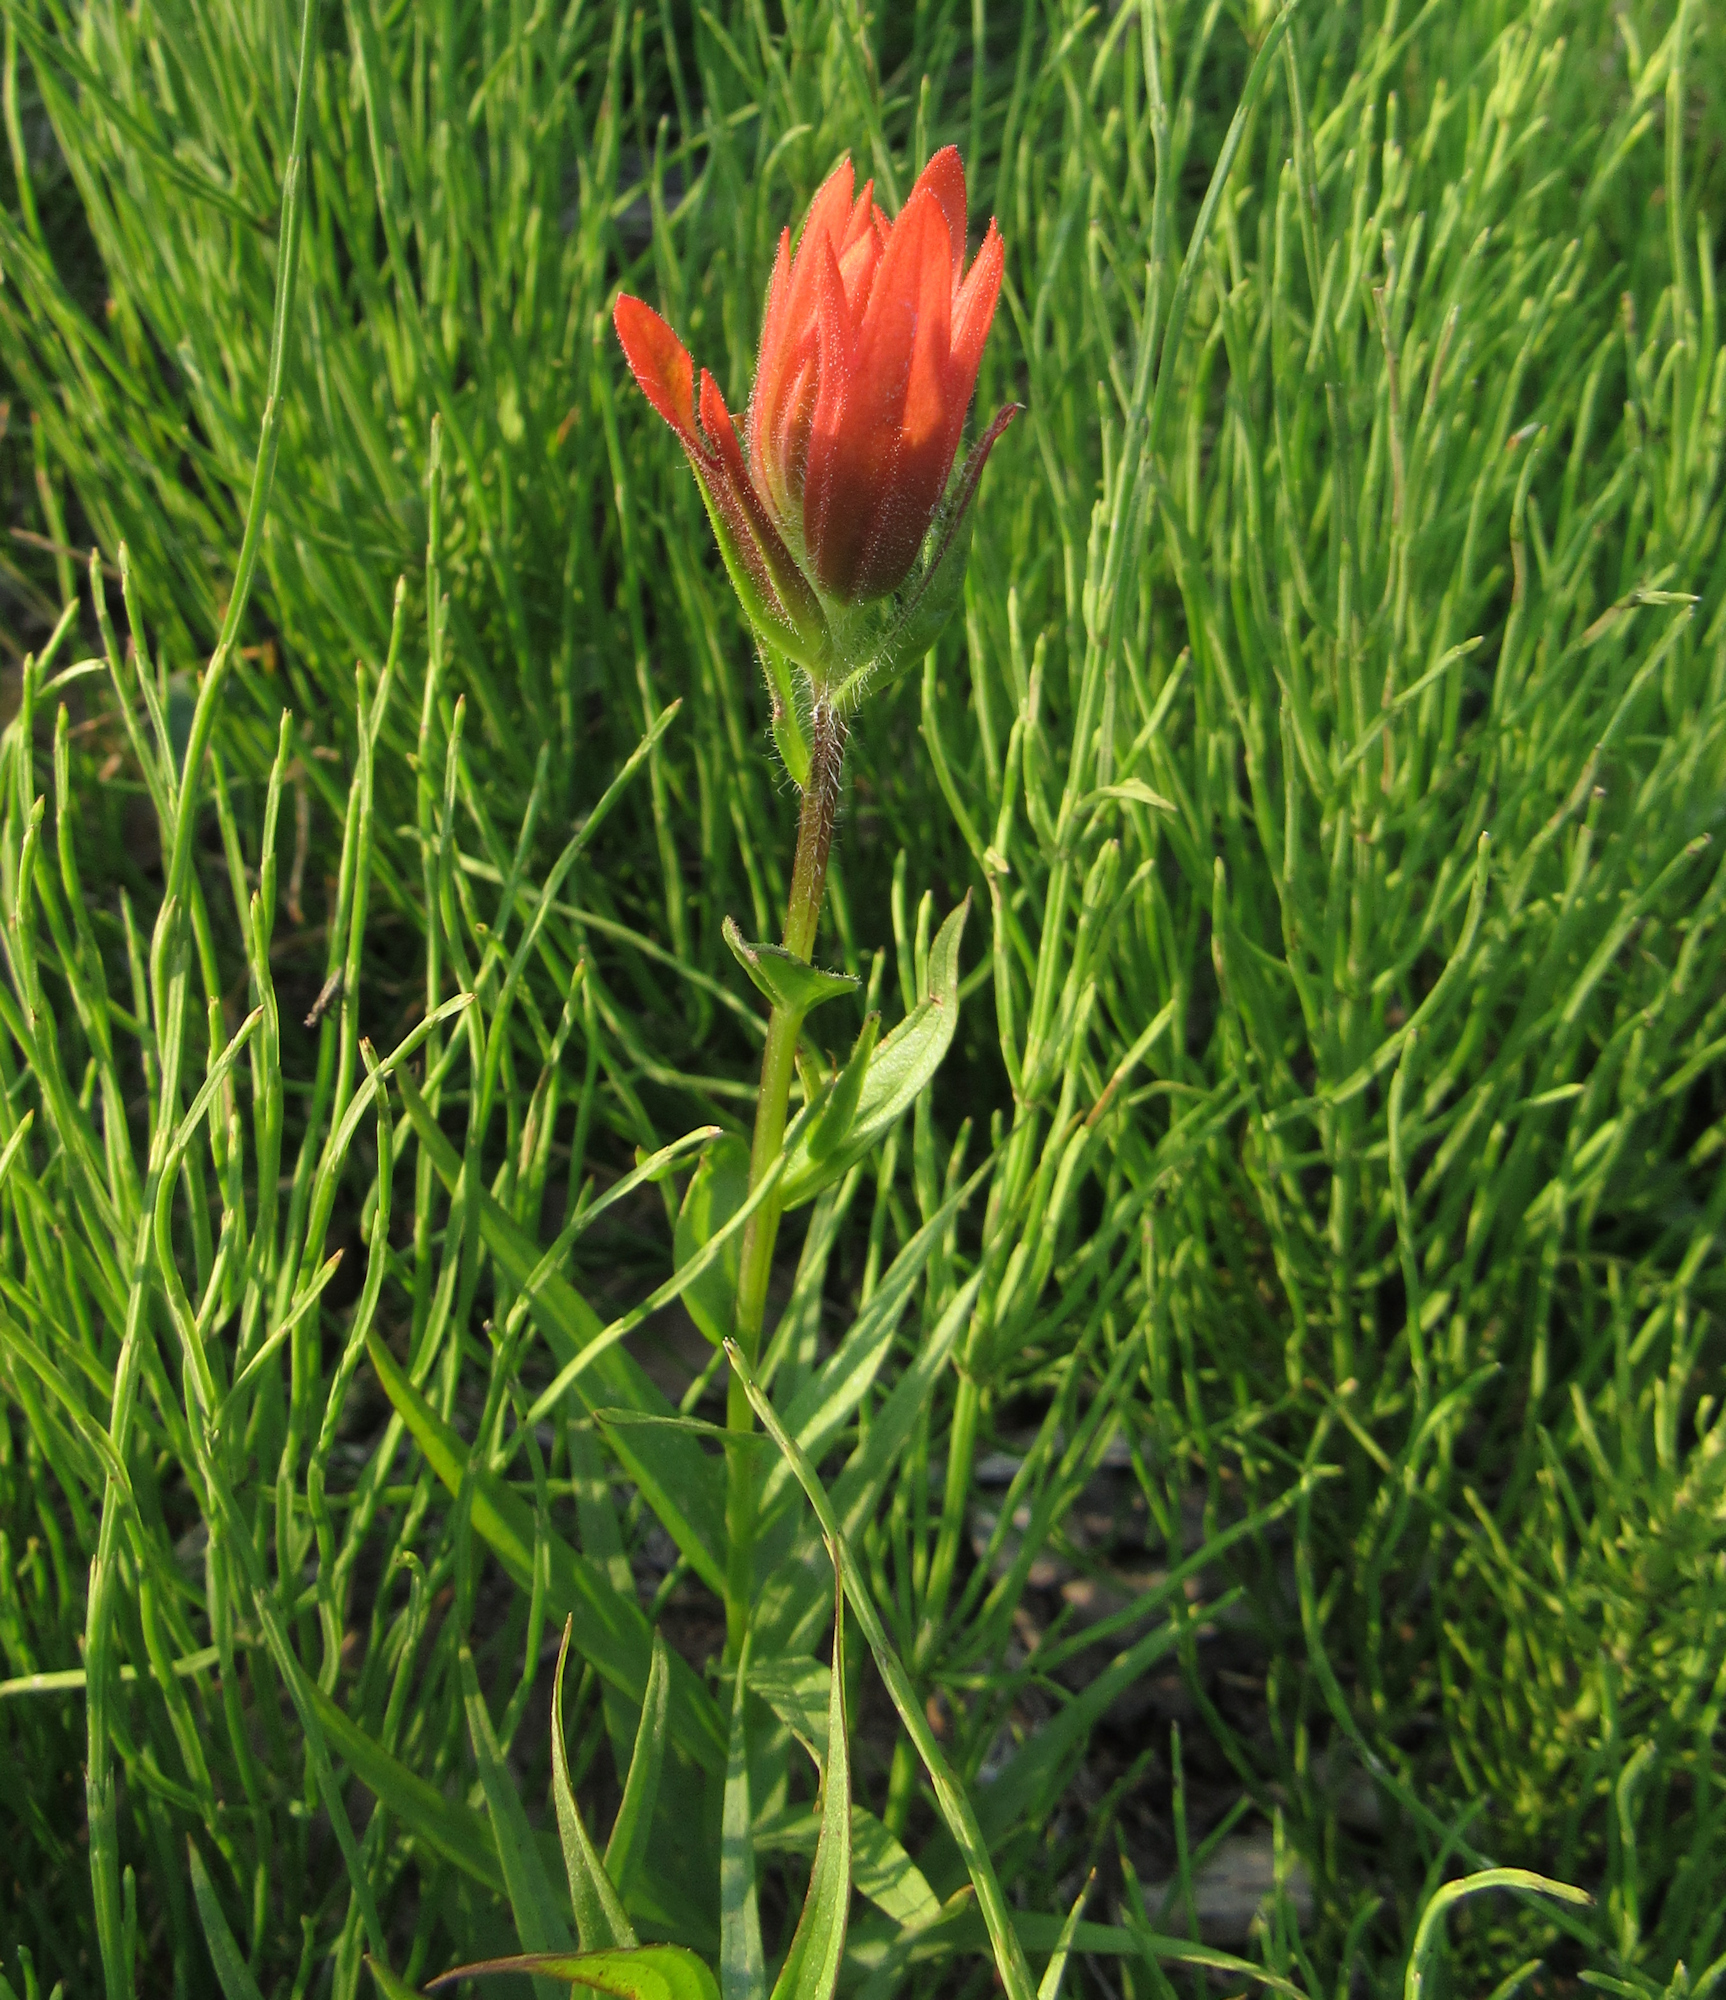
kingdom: Plantae
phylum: Tracheophyta
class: Magnoliopsida
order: Lamiales
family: Orobanchaceae
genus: Castilleja
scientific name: Castilleja miniata
